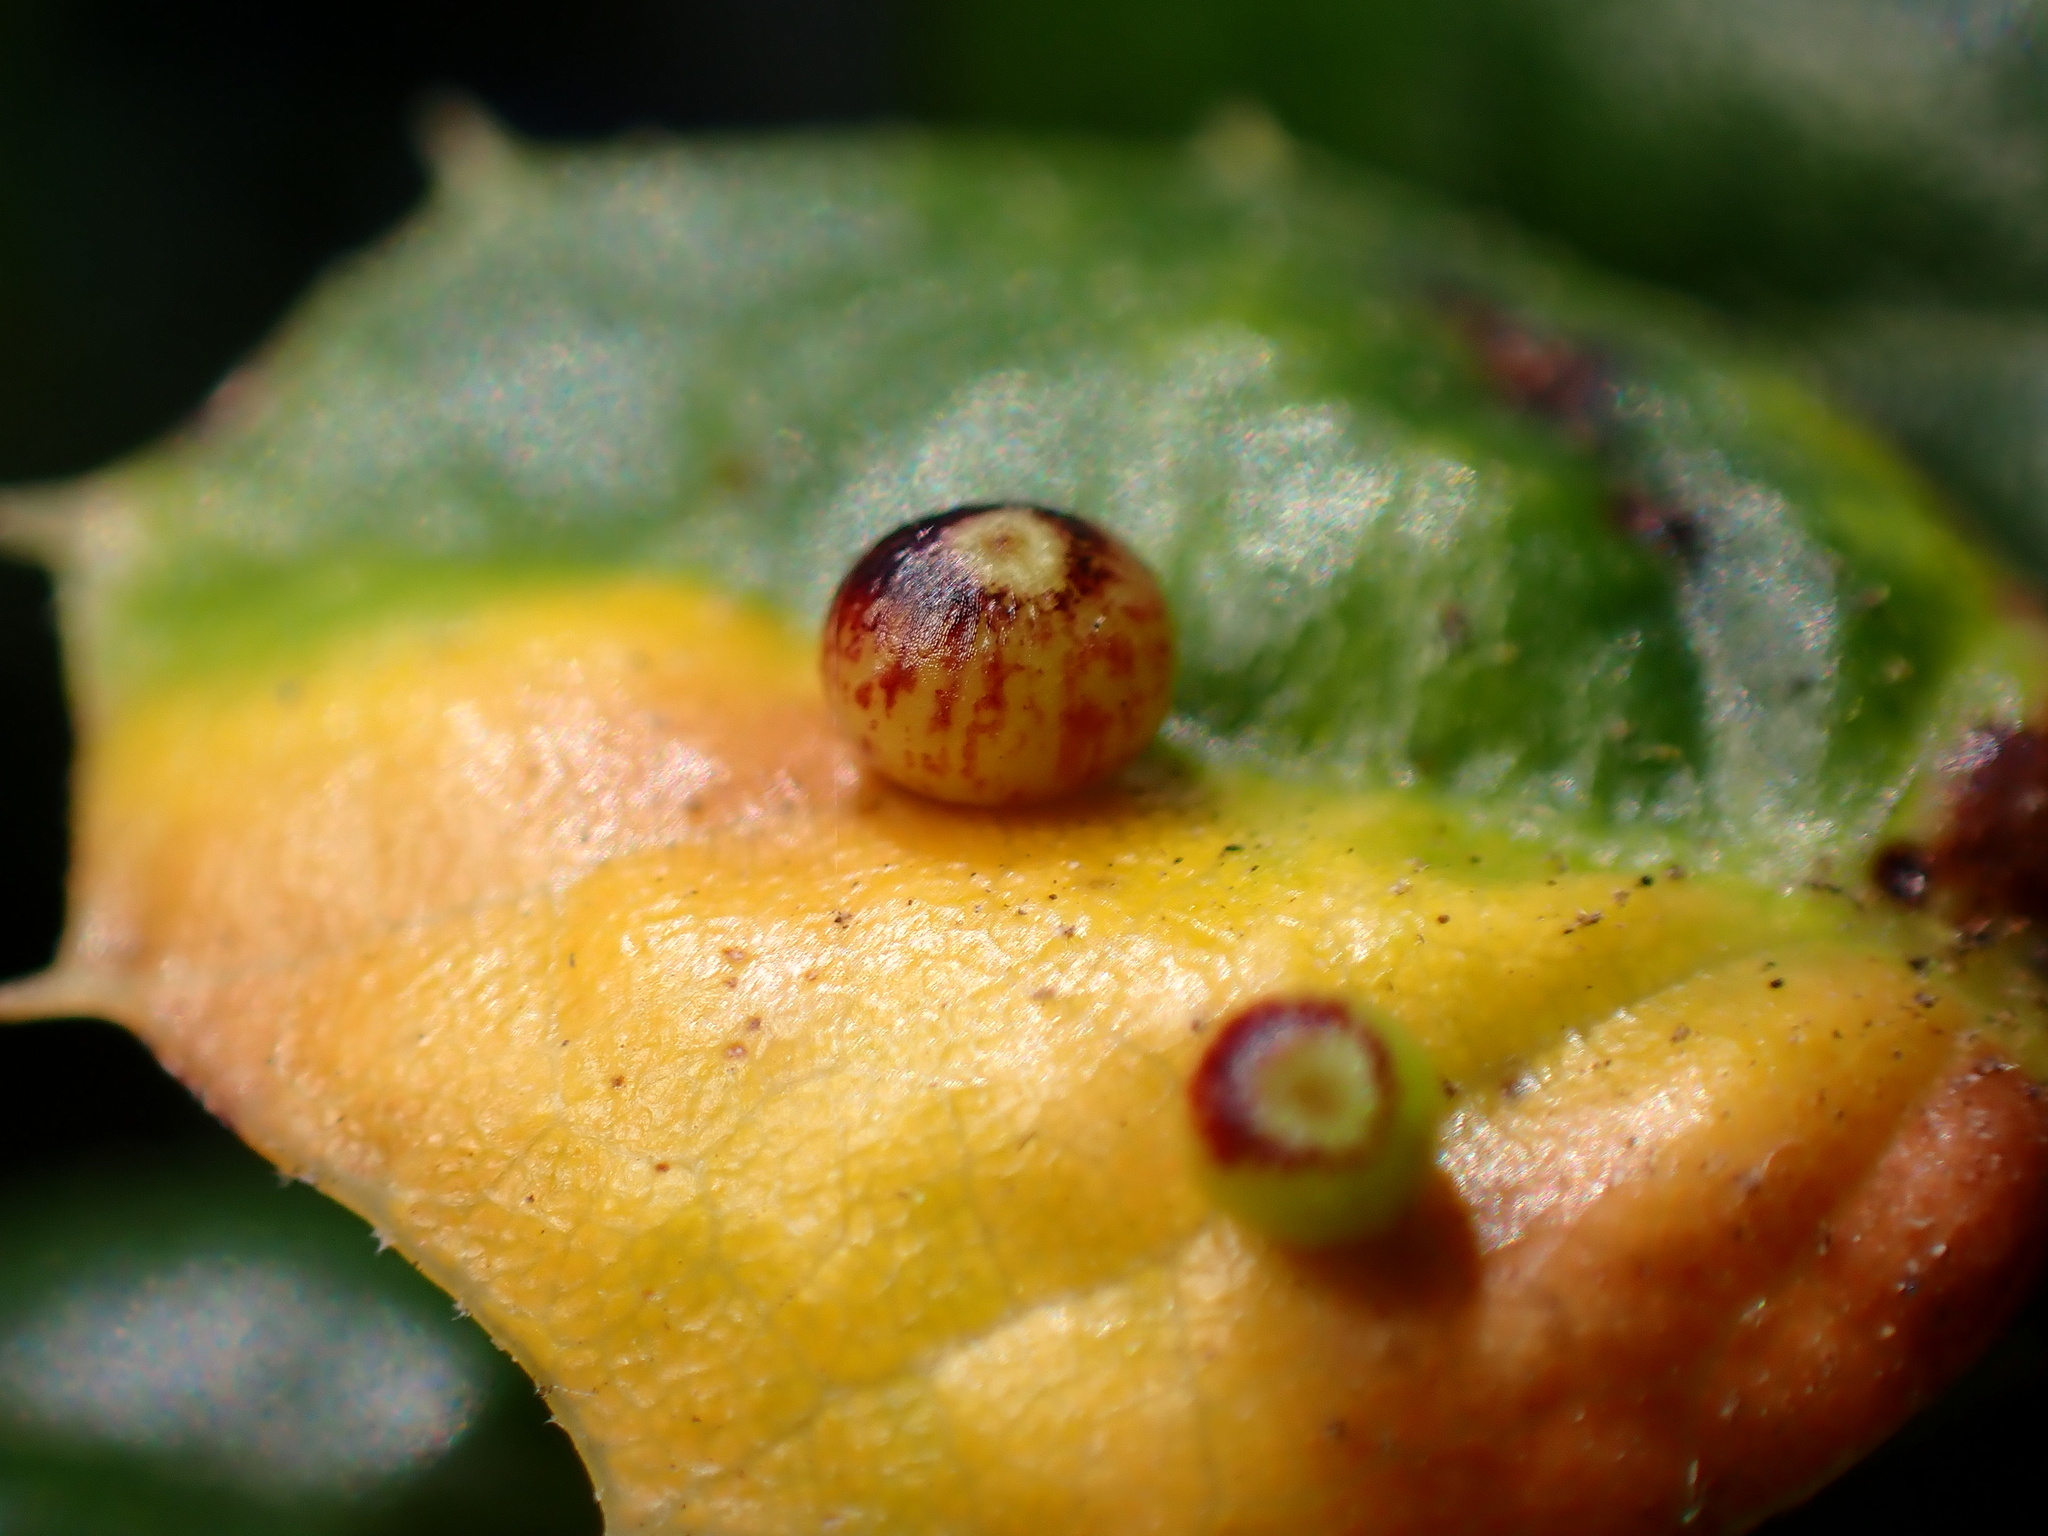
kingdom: Animalia
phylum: Arthropoda
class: Insecta
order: Hymenoptera
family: Cynipidae
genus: Dryocosmus
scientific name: Dryocosmus
